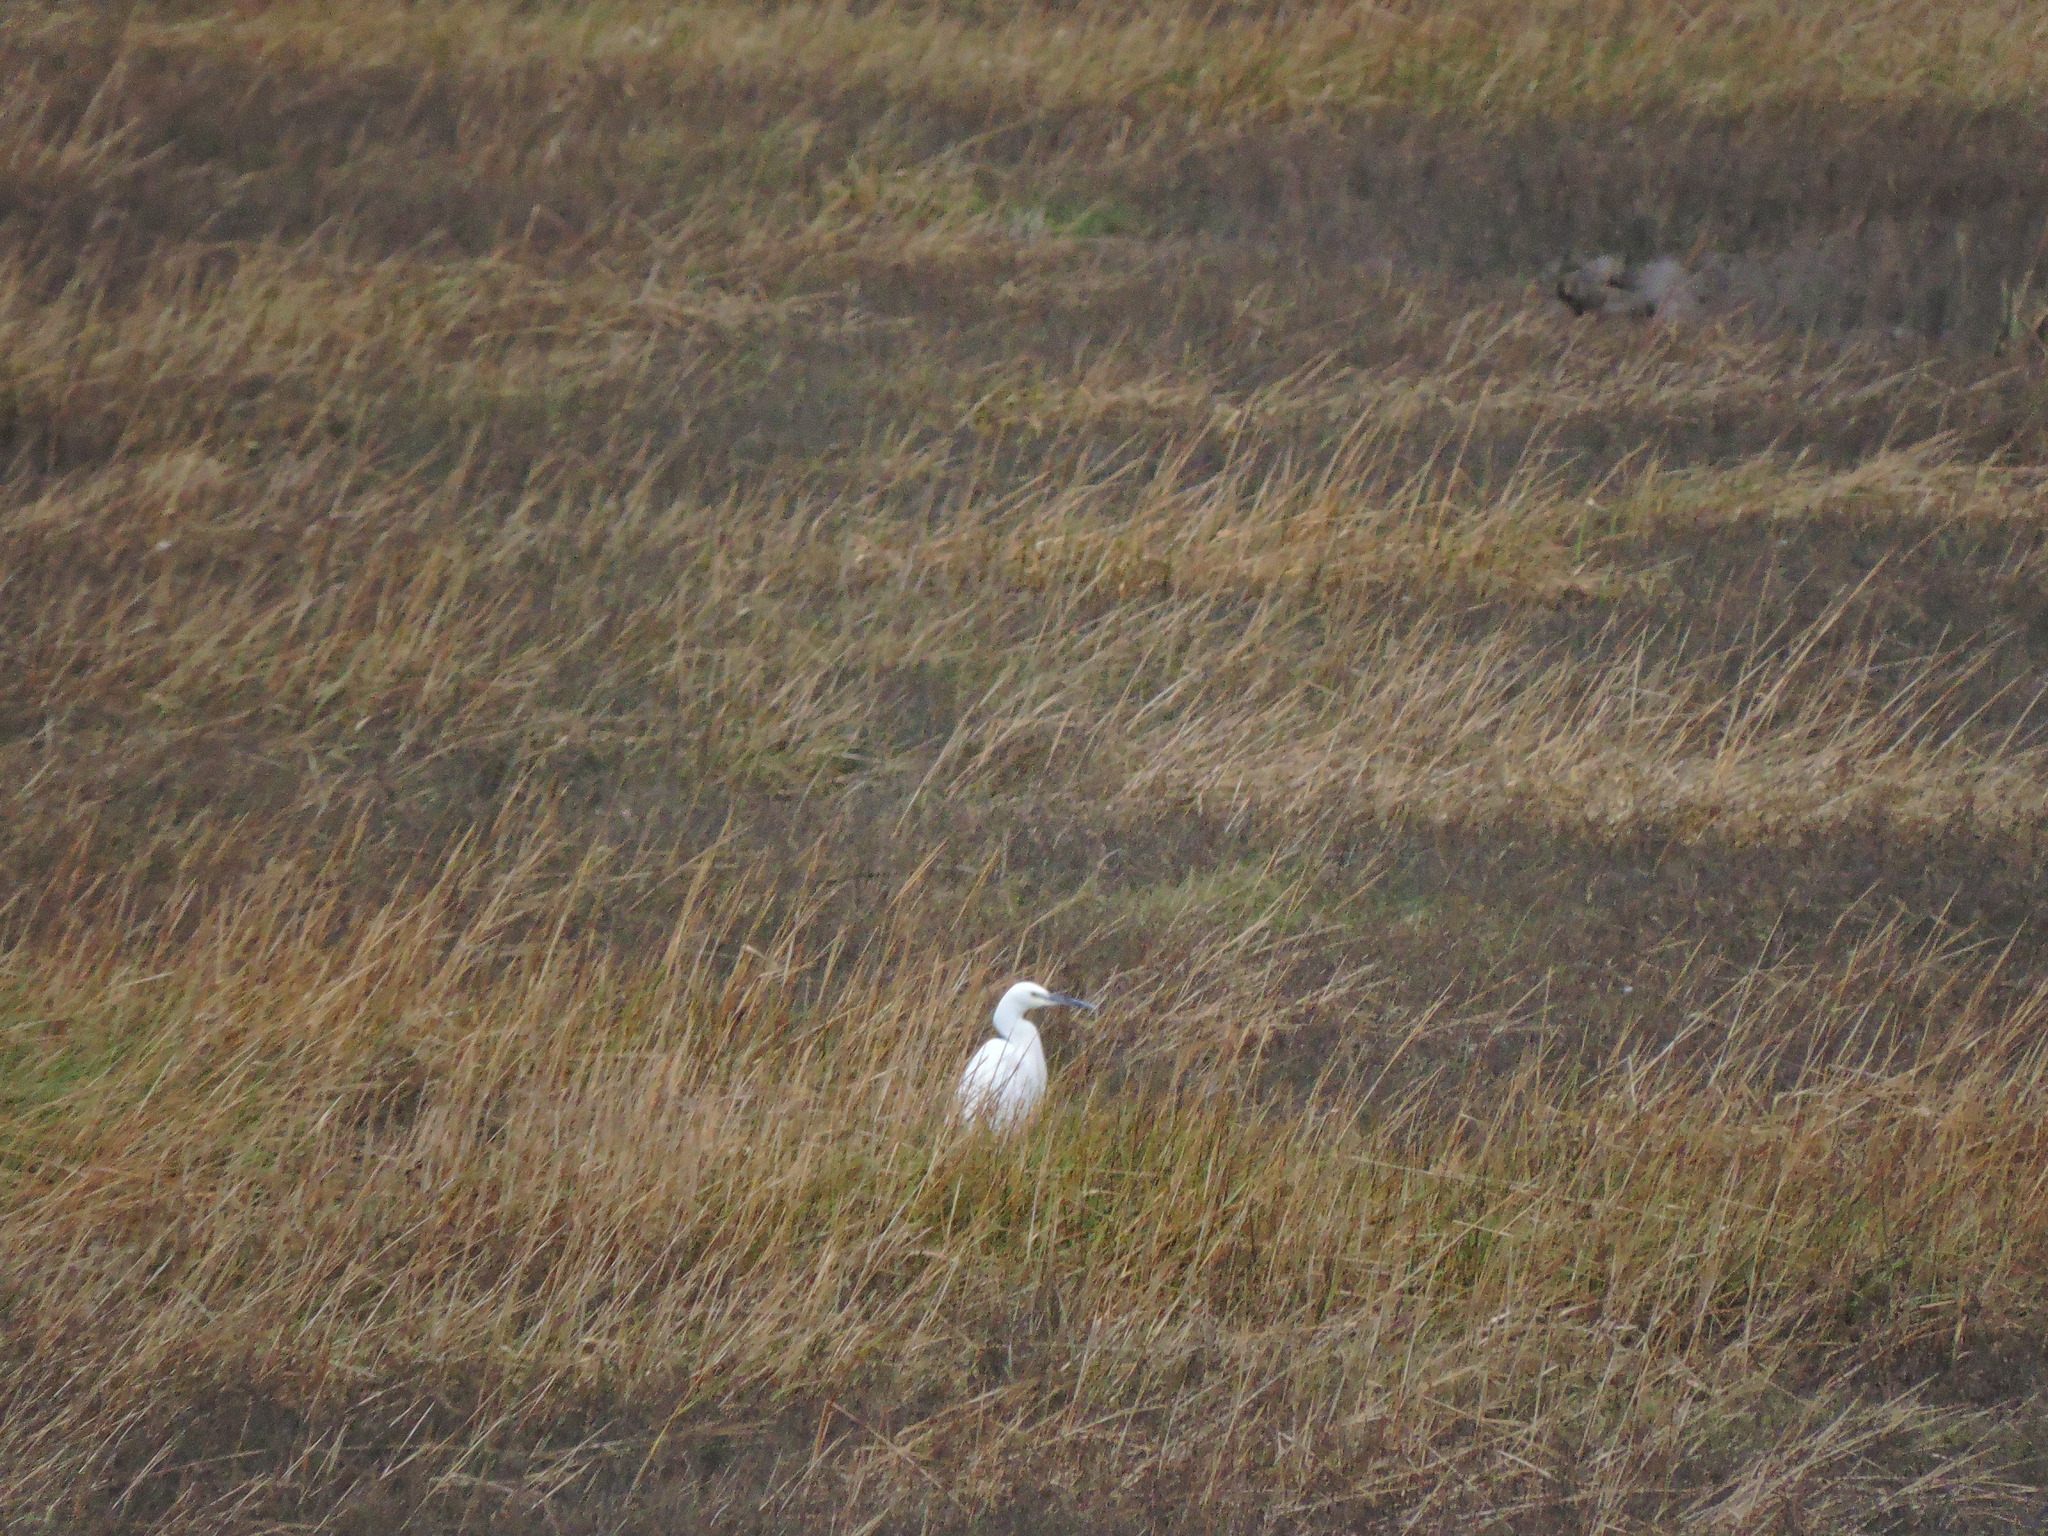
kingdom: Animalia
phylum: Chordata
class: Aves
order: Pelecaniformes
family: Ardeidae
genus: Egretta
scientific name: Egretta garzetta
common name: Little egret
